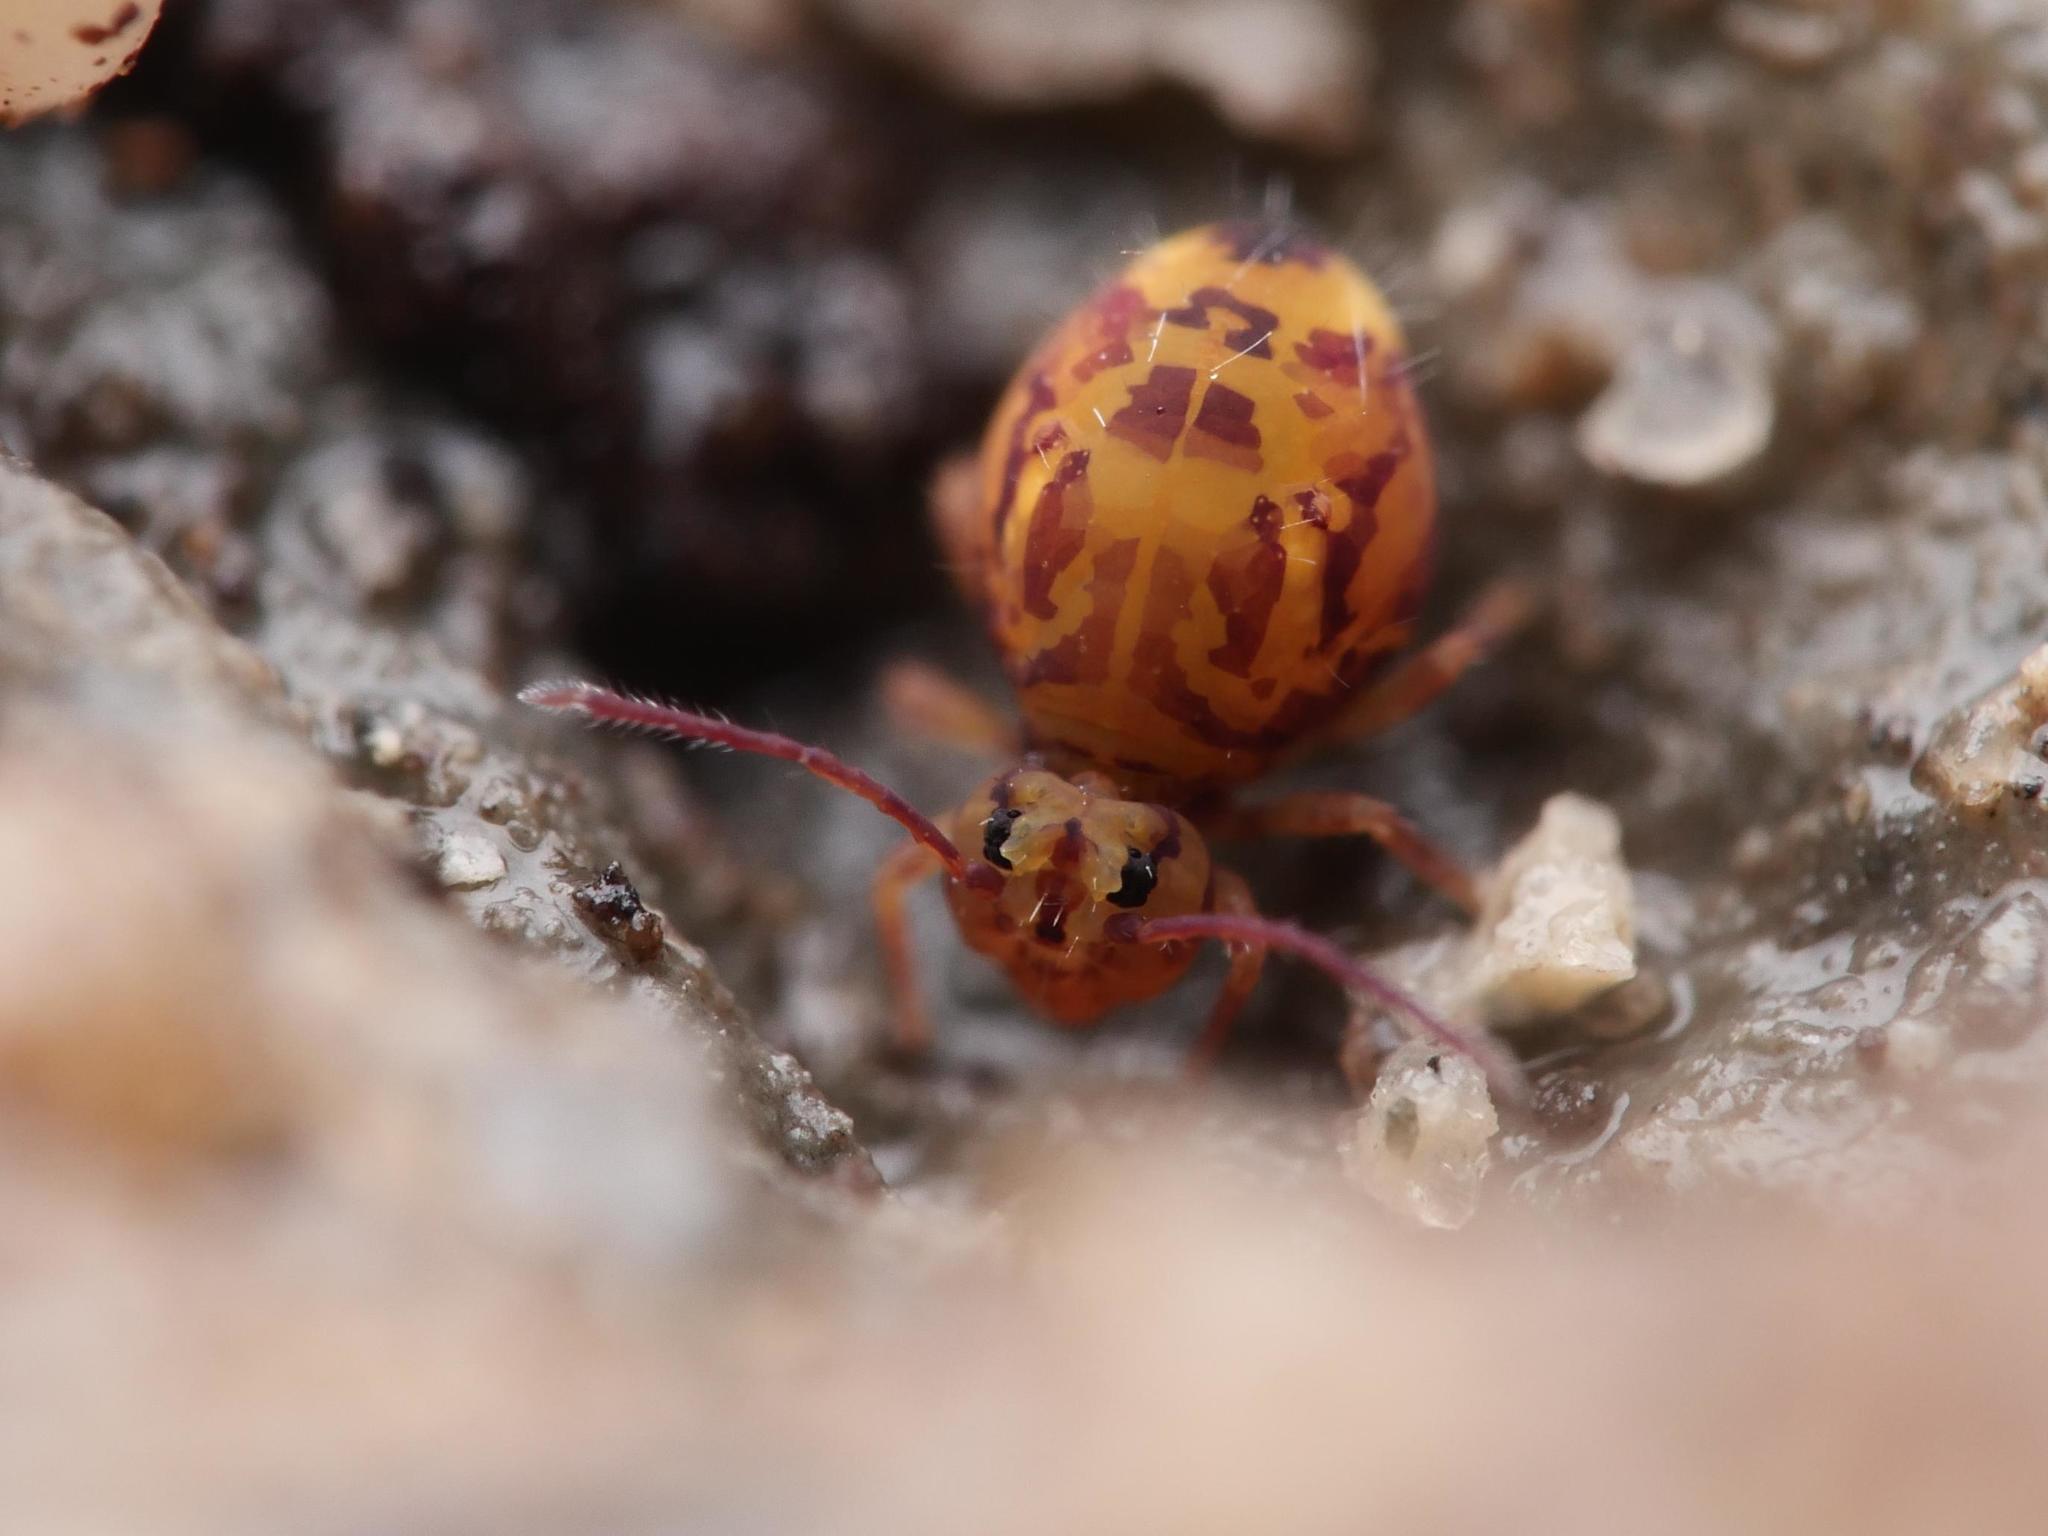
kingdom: Animalia
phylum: Arthropoda
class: Collembola
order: Symphypleona
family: Dicyrtomidae
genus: Dicyrtomina
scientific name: Dicyrtomina ornata
